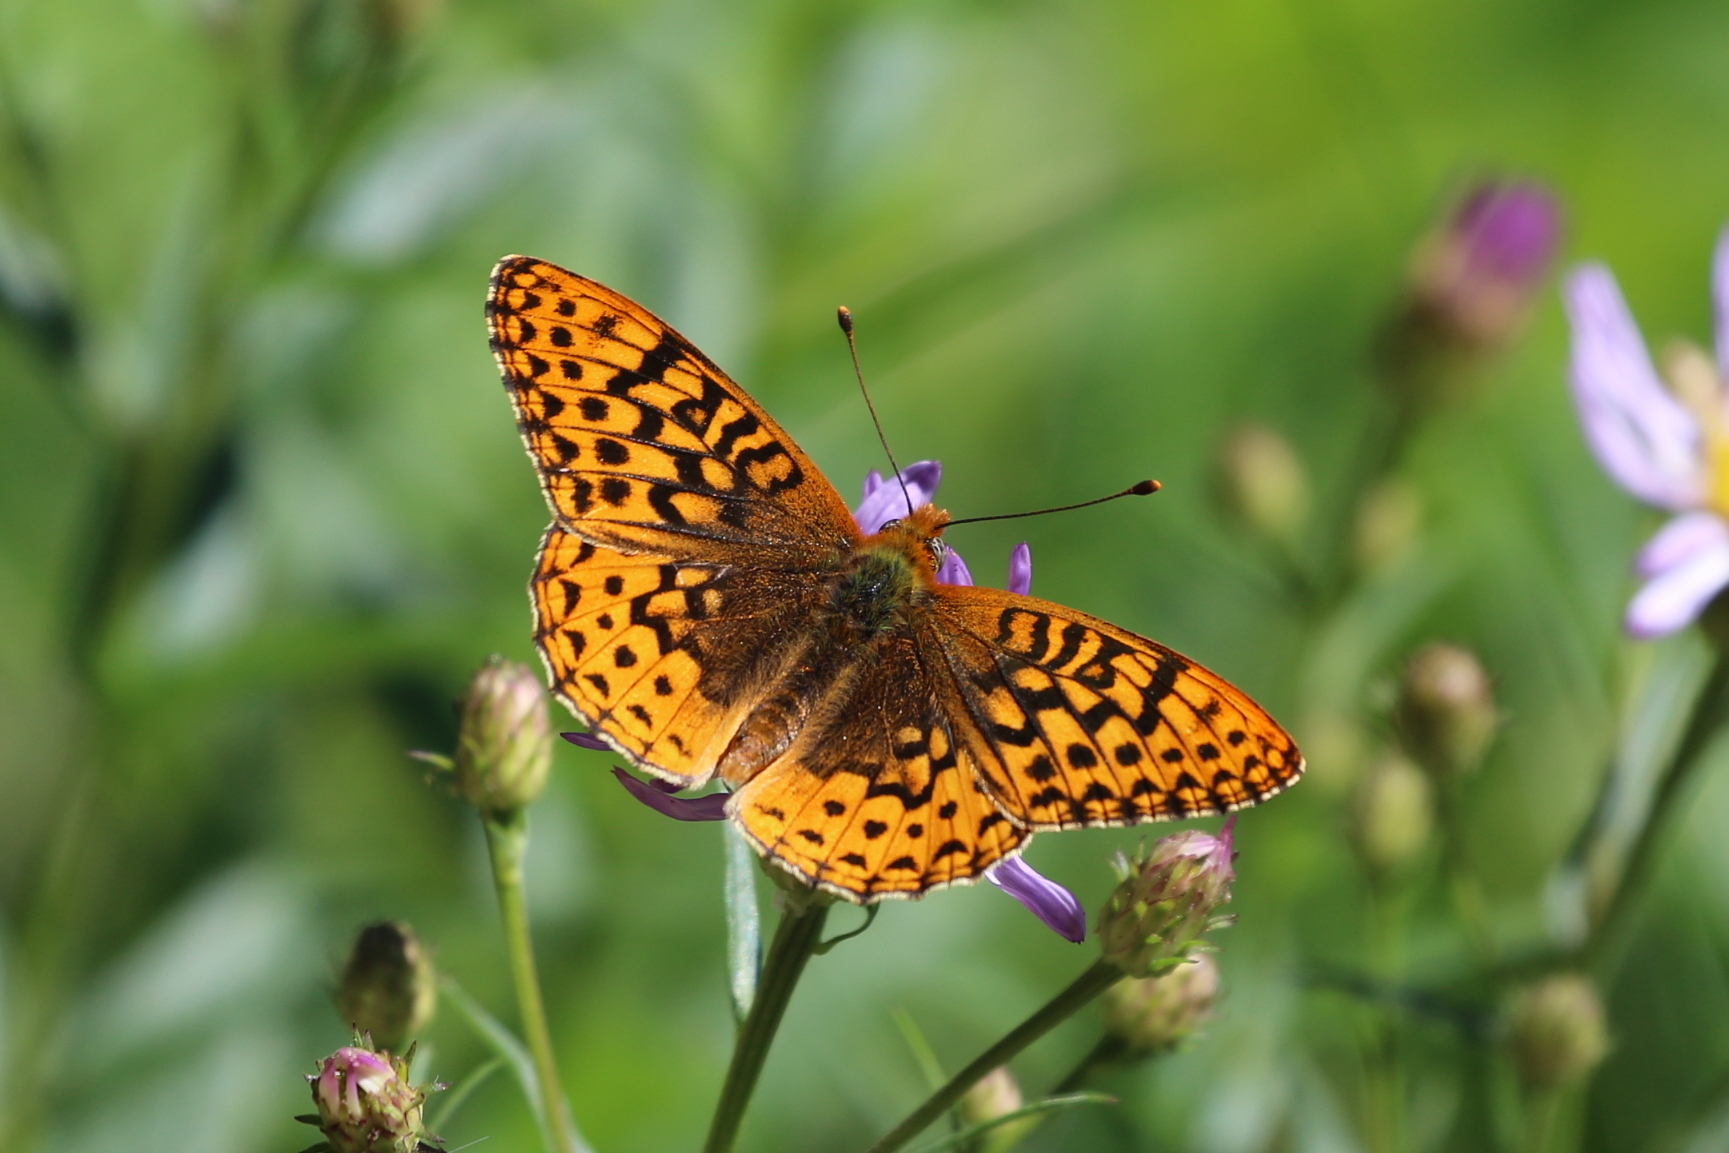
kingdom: Animalia
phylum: Arthropoda
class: Insecta
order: Lepidoptera
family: Nymphalidae
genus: Speyeria
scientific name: Speyeria mormonia
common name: Mormon fritillary
